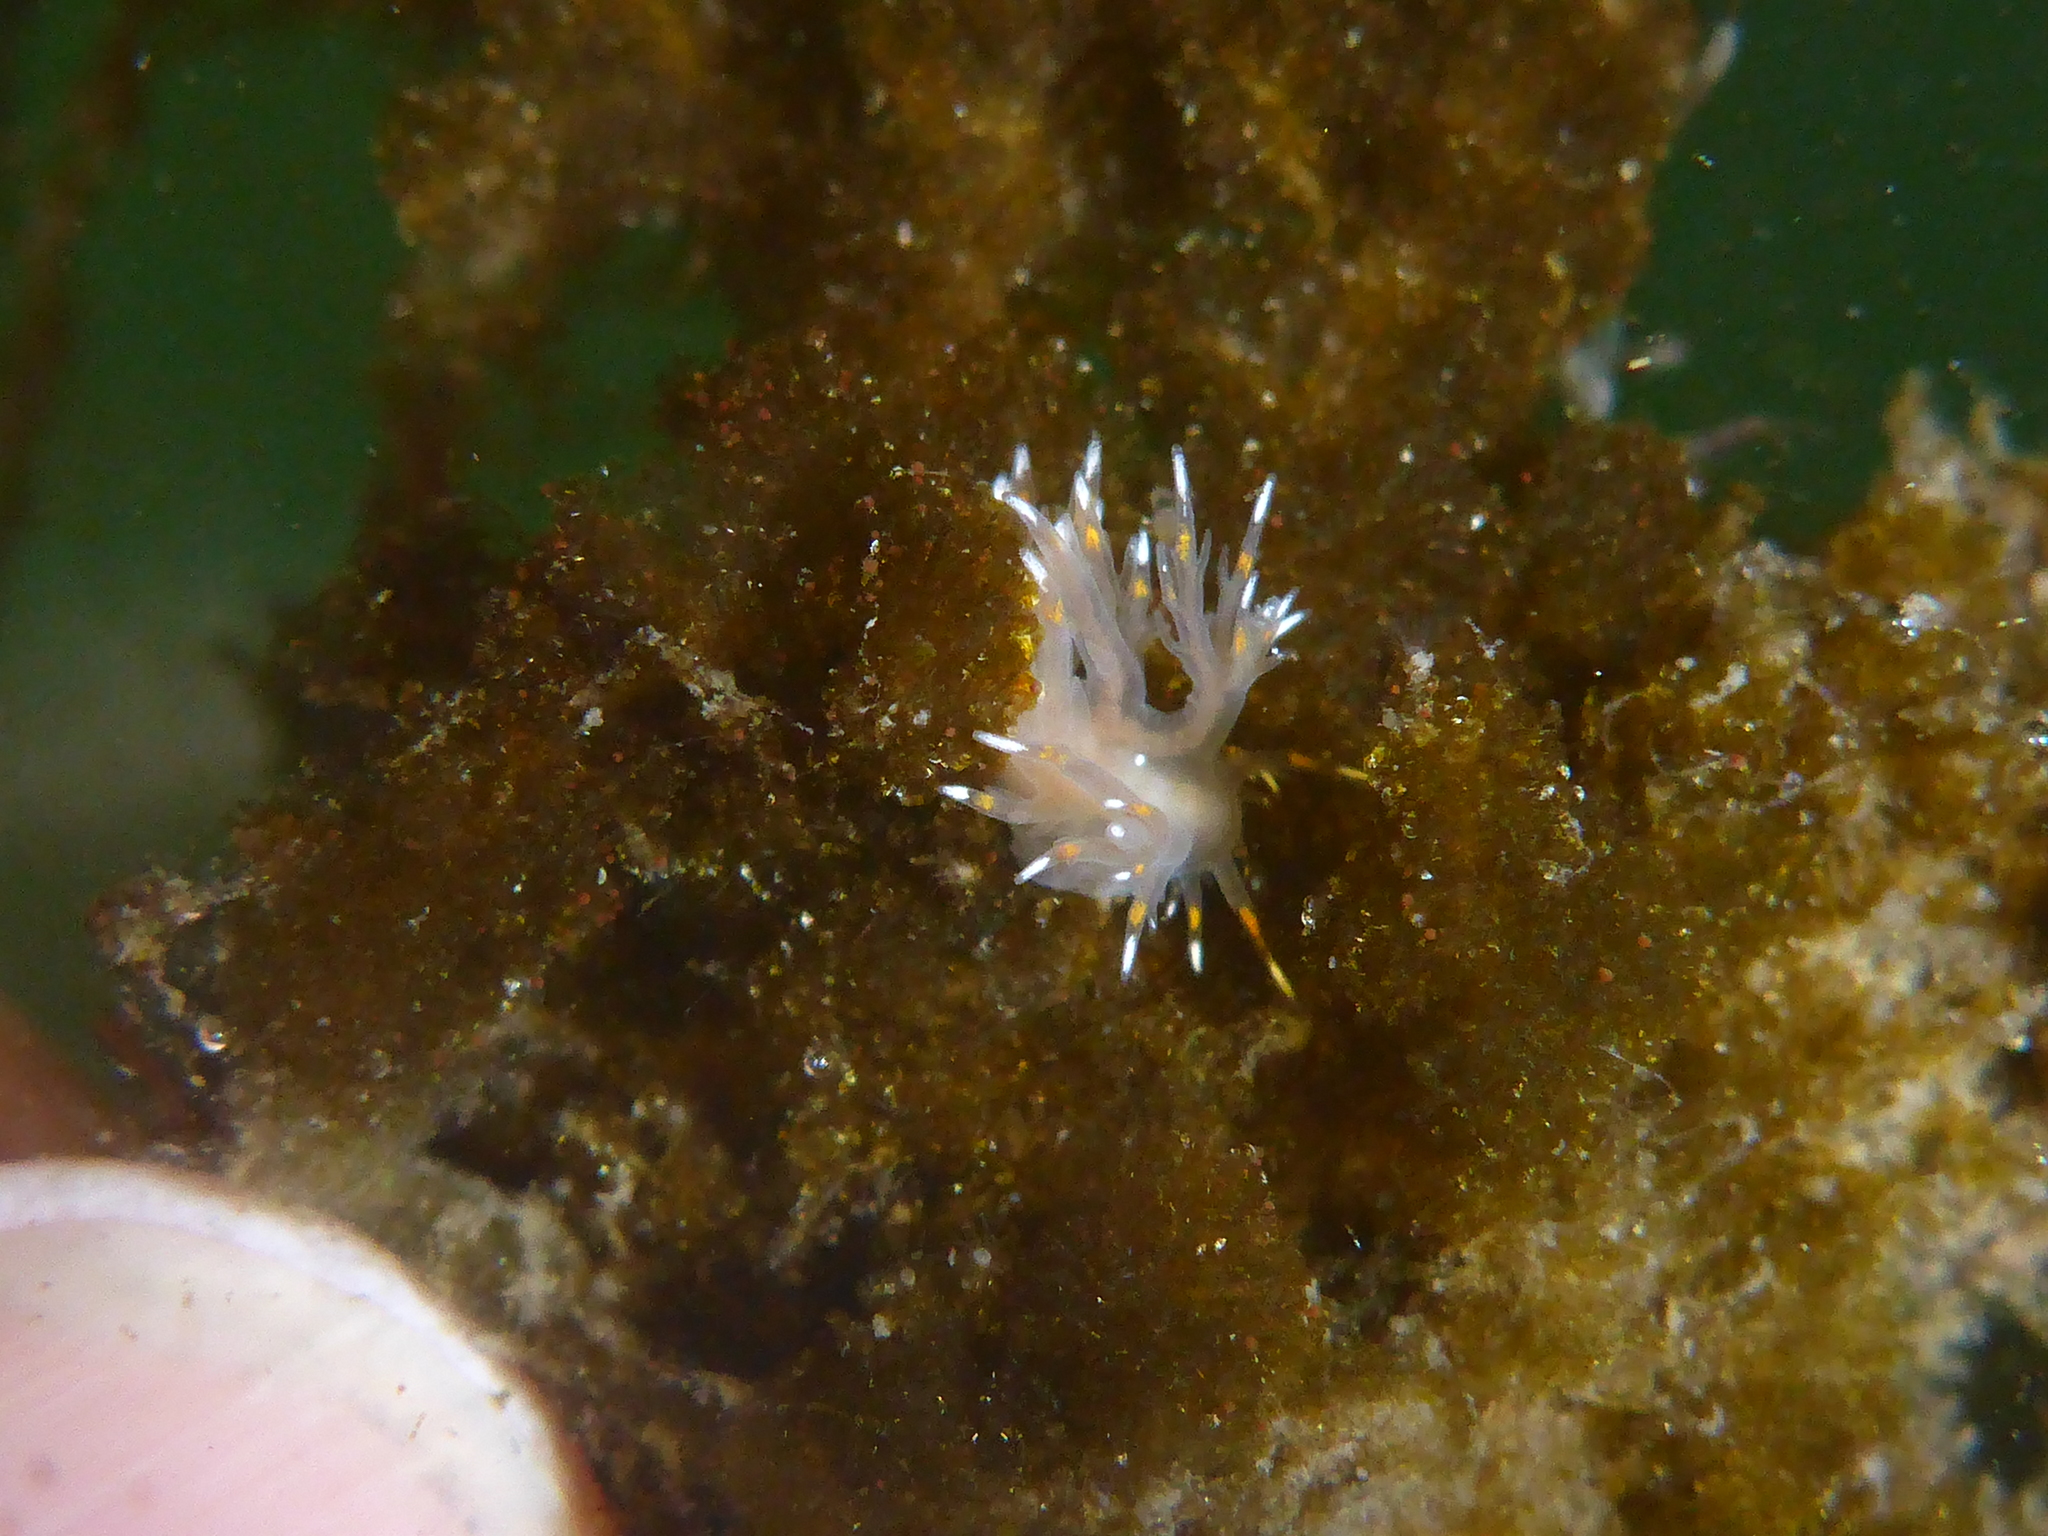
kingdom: Animalia
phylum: Mollusca
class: Gastropoda
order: Nudibranchia
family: Dendronotidae
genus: Dendronotus
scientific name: Dendronotus iris
